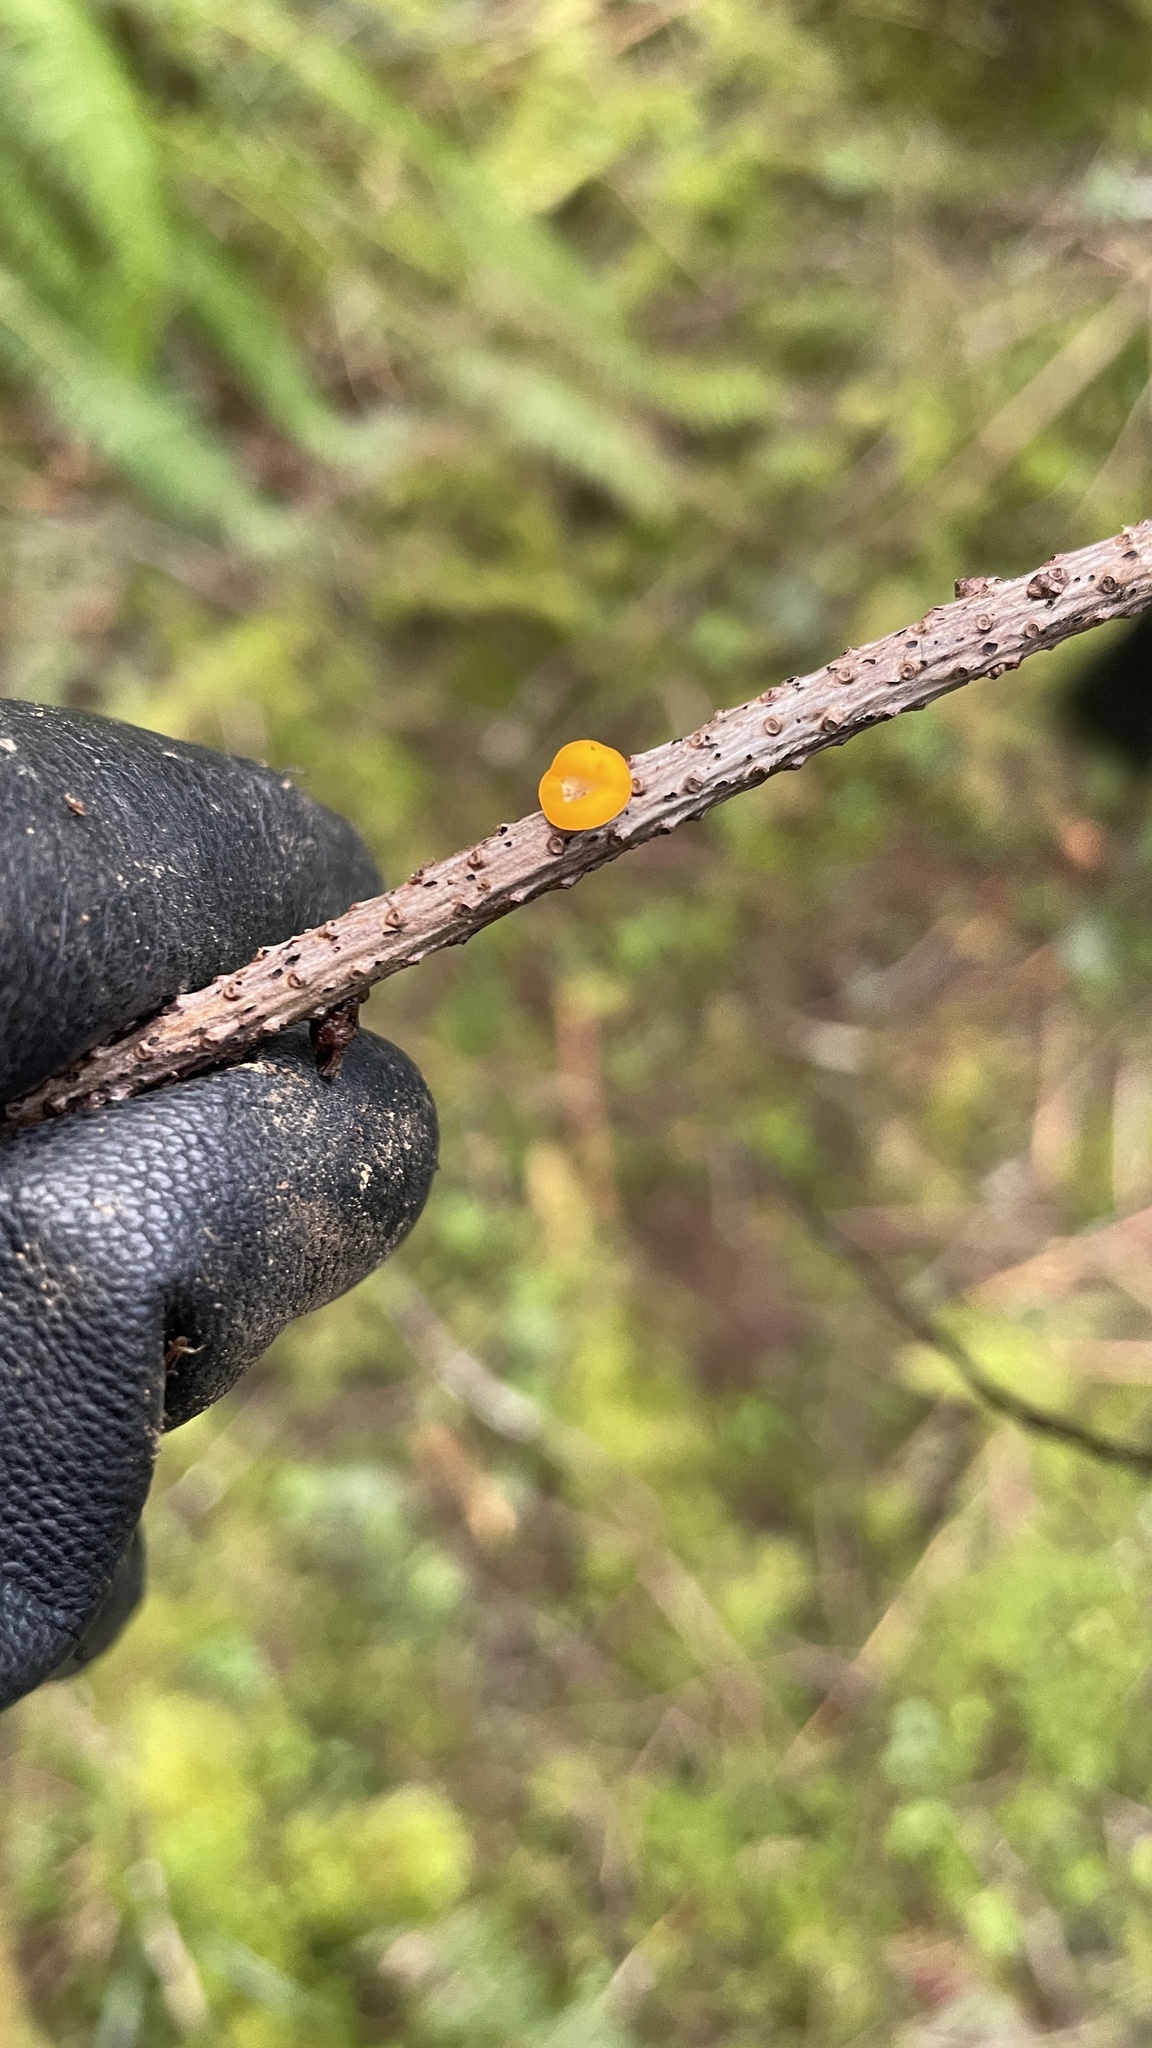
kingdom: Fungi
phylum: Ascomycota
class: Pezizomycetes
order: Pezizales
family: Sarcoscyphaceae
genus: Pithya
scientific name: Pithya vulgaris
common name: Fir disco
